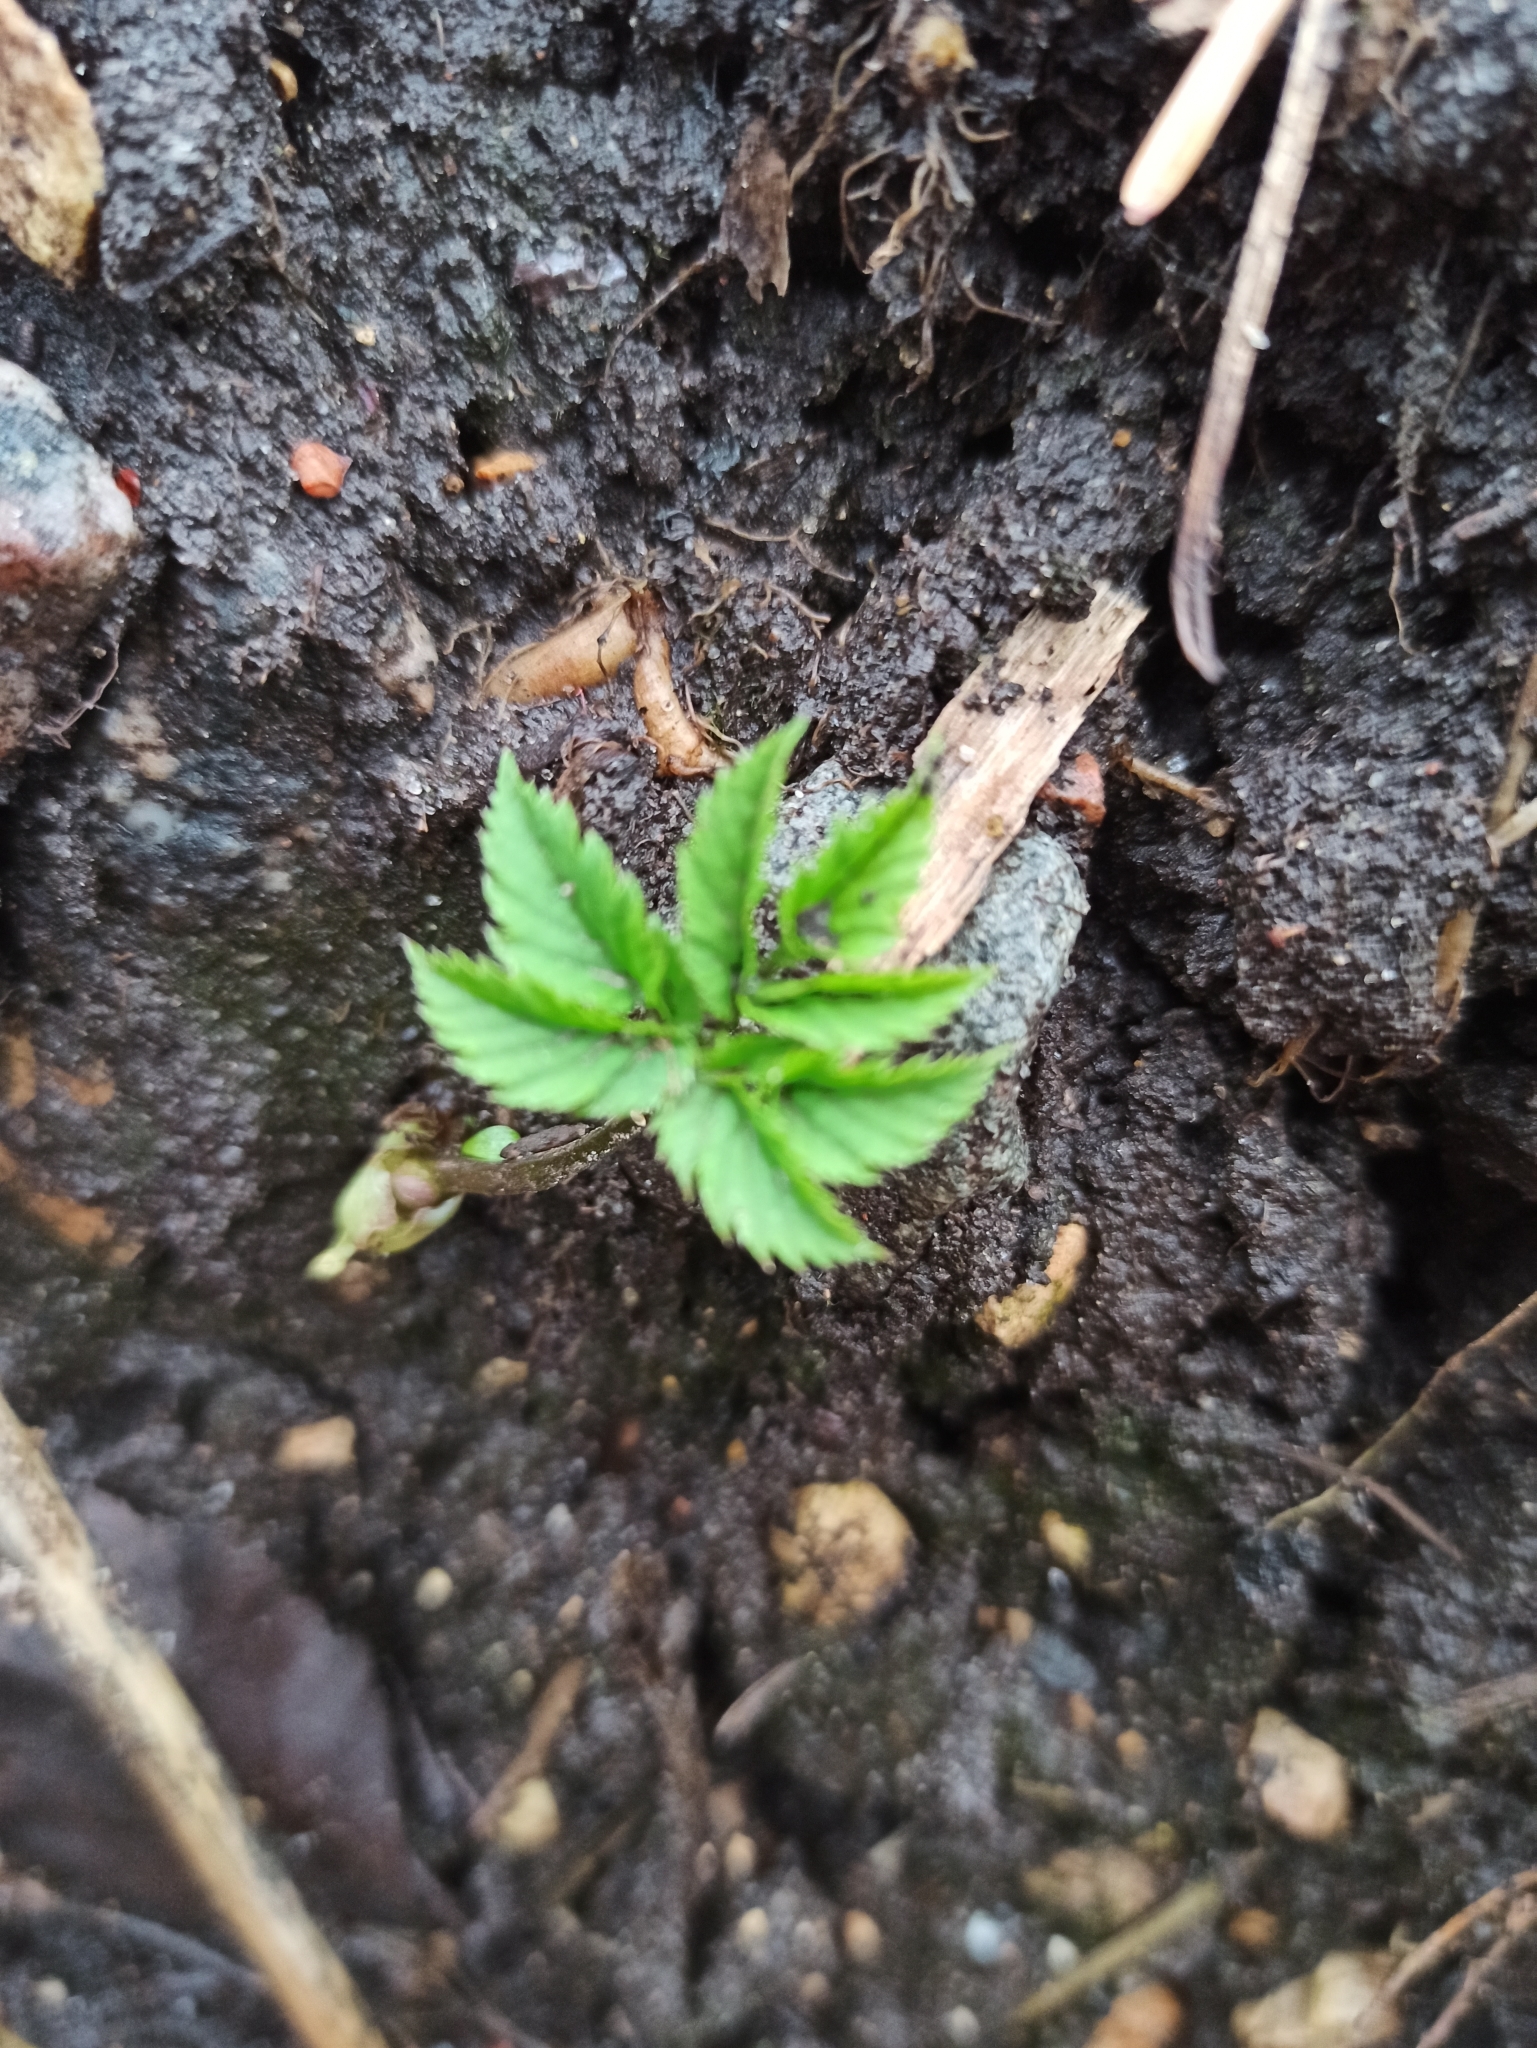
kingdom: Plantae
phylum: Tracheophyta
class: Magnoliopsida
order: Apiales
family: Apiaceae
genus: Aegopodium
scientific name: Aegopodium podagraria
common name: Ground-elder
